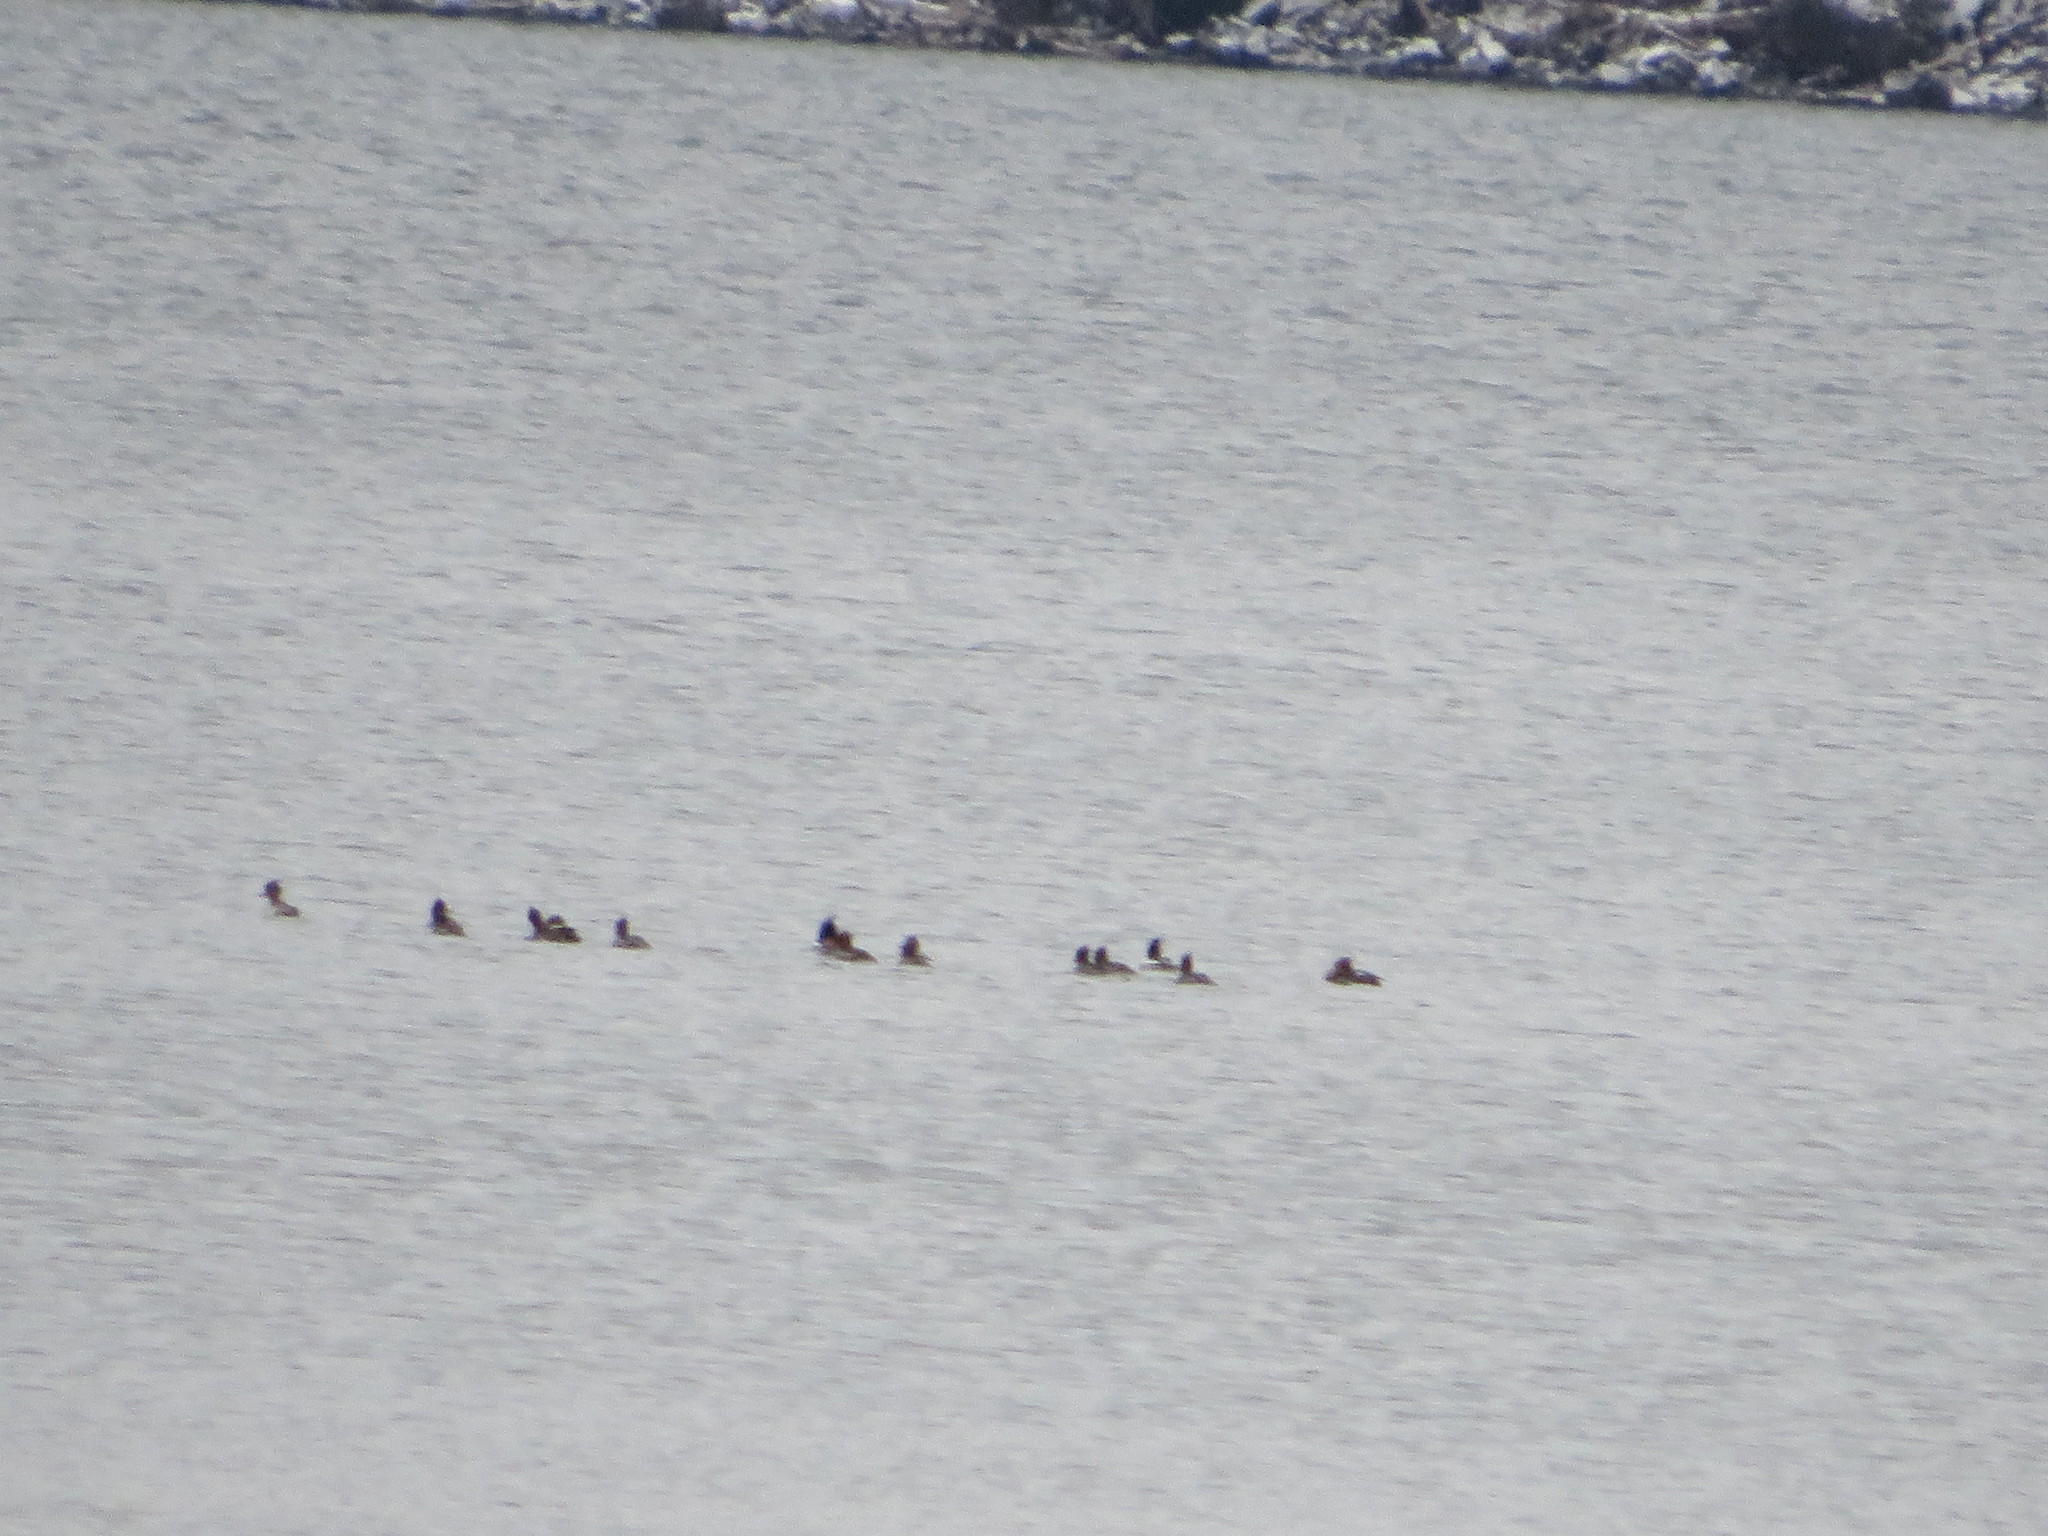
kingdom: Animalia
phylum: Chordata
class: Aves
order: Anseriformes
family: Anatidae
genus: Mergus
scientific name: Mergus serrator
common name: Red-breasted merganser
